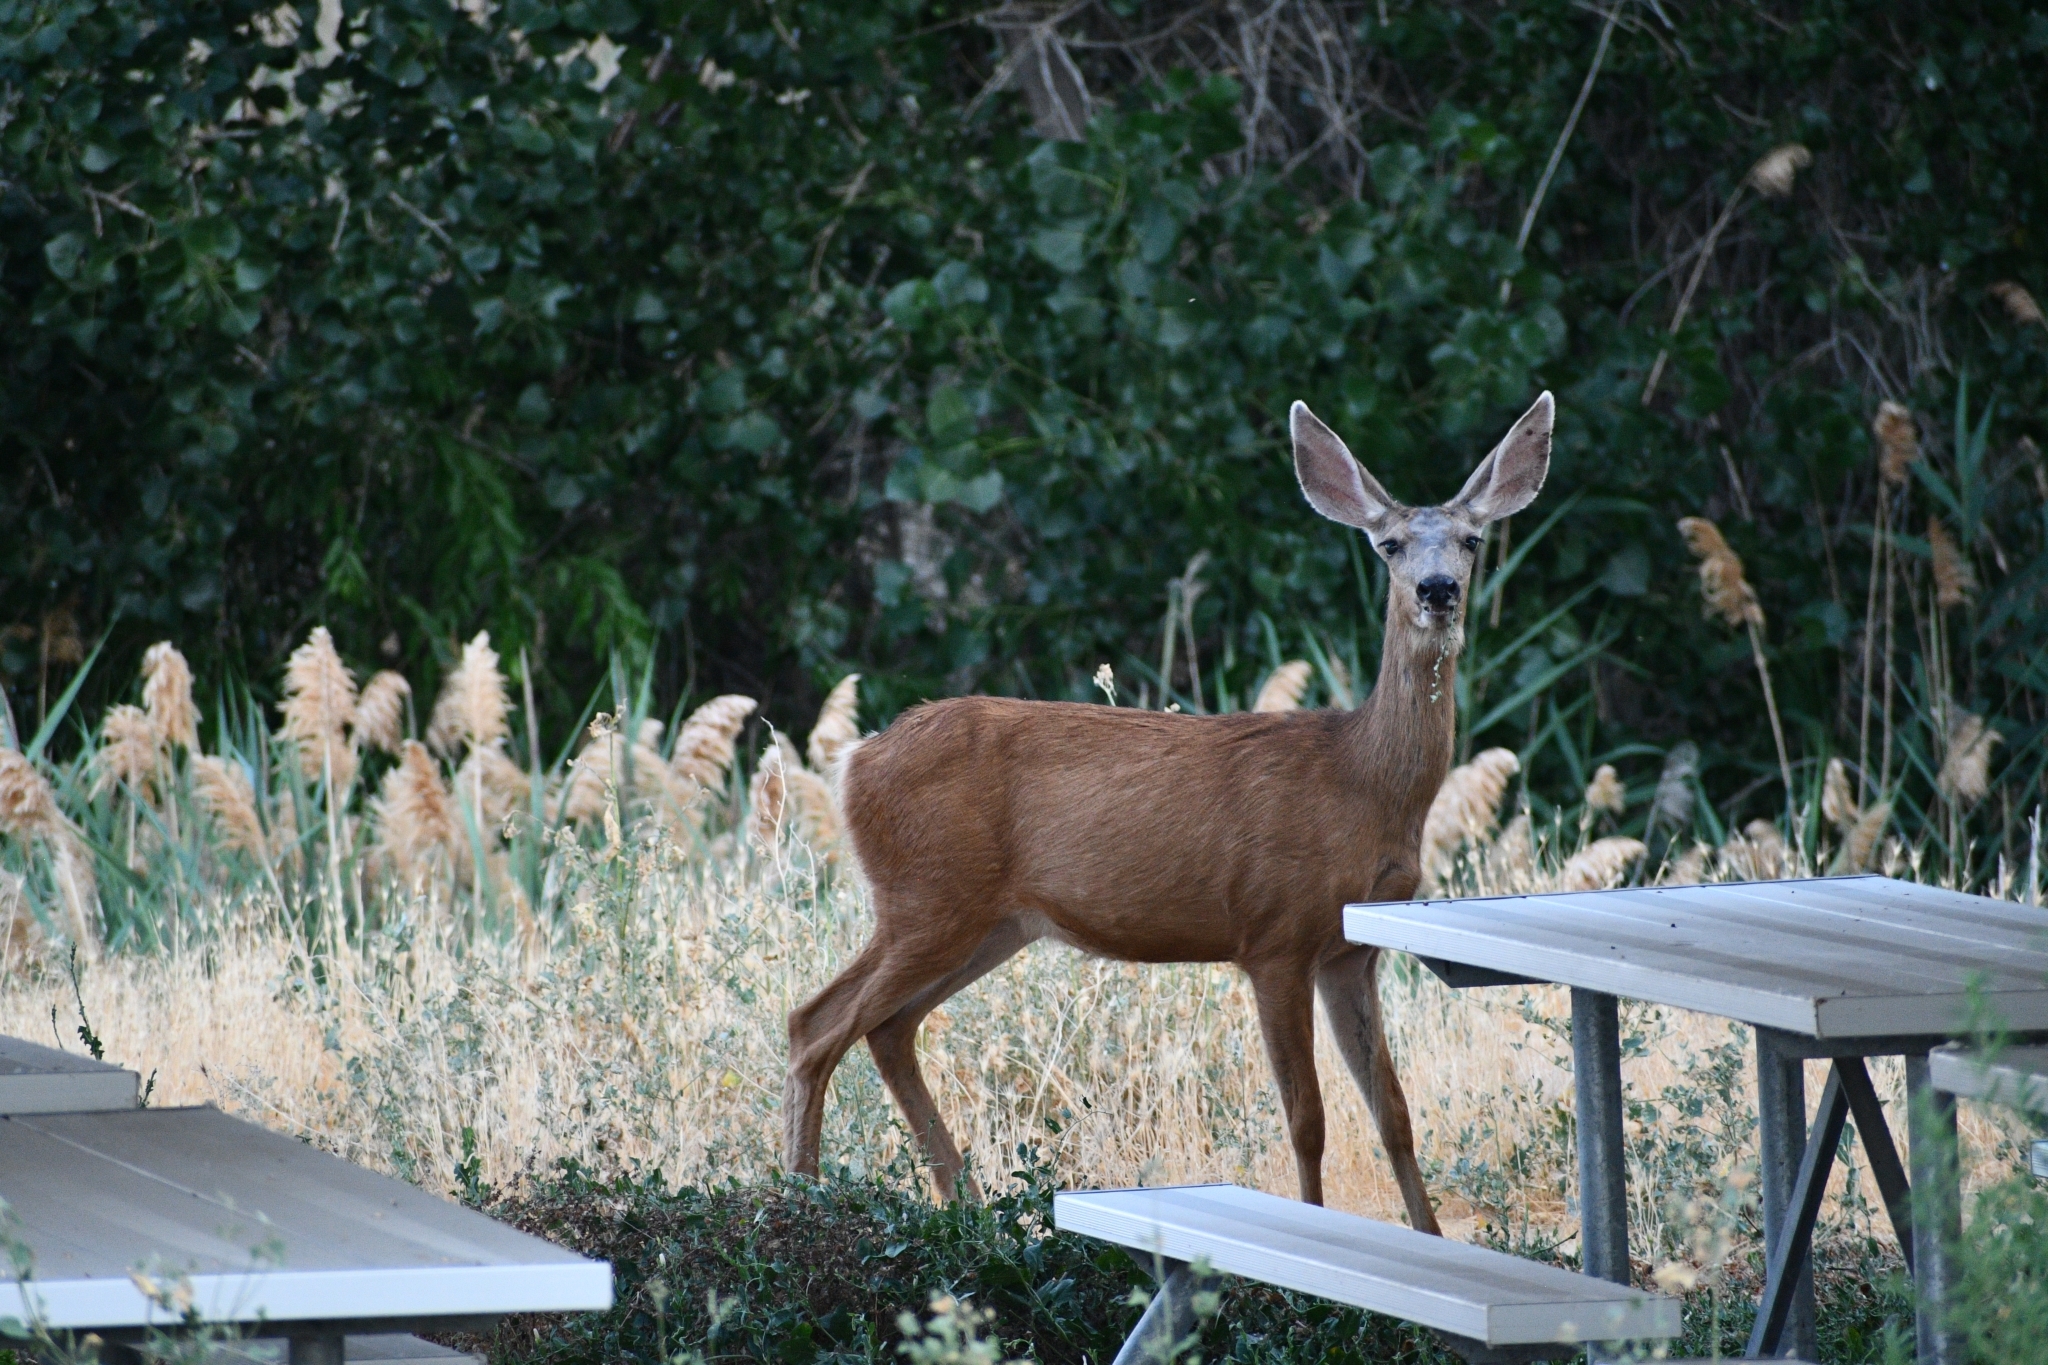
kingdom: Animalia
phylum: Chordata
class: Mammalia
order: Artiodactyla
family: Cervidae
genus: Odocoileus
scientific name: Odocoileus hemionus
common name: Mule deer
